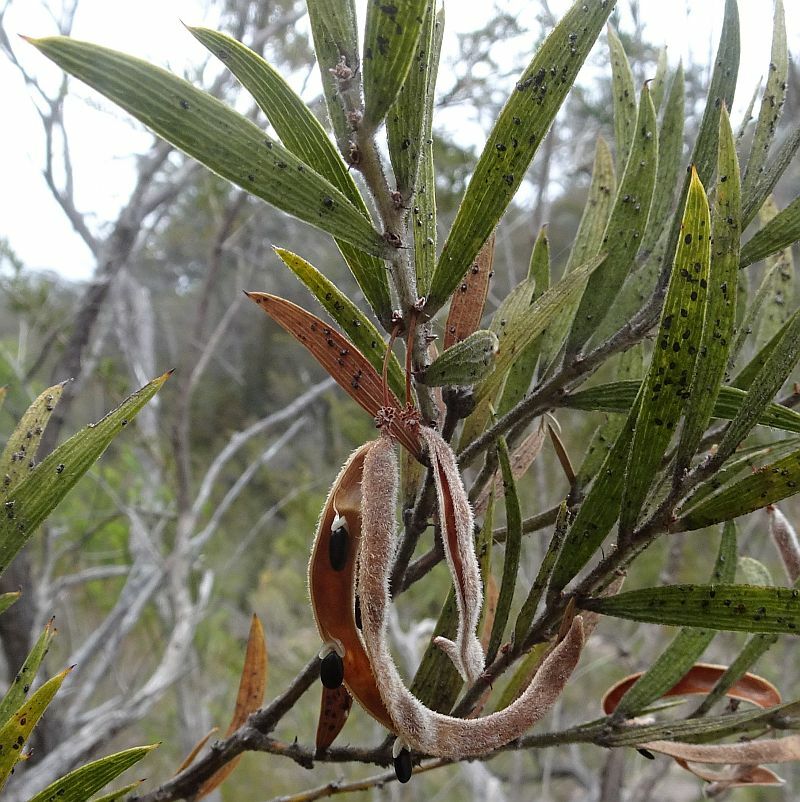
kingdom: Plantae
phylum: Tracheophyta
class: Magnoliopsida
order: Fabales
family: Fabaceae
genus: Acacia
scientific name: Acacia lanigera
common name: Hairy wattle
